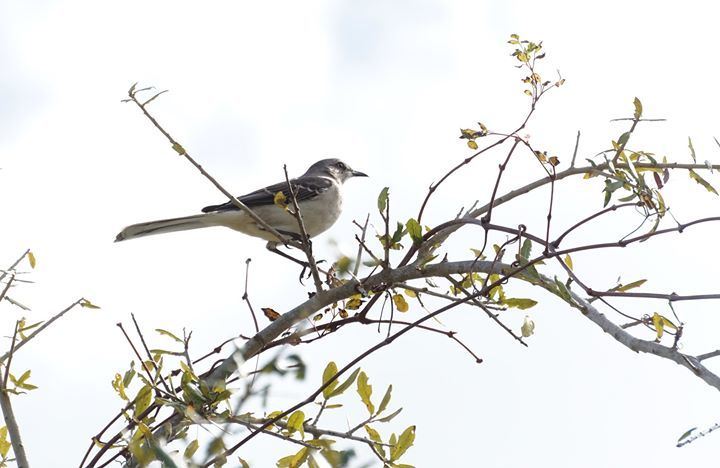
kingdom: Animalia
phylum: Chordata
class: Aves
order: Passeriformes
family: Mimidae
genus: Mimus
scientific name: Mimus polyglottos
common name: Northern mockingbird
